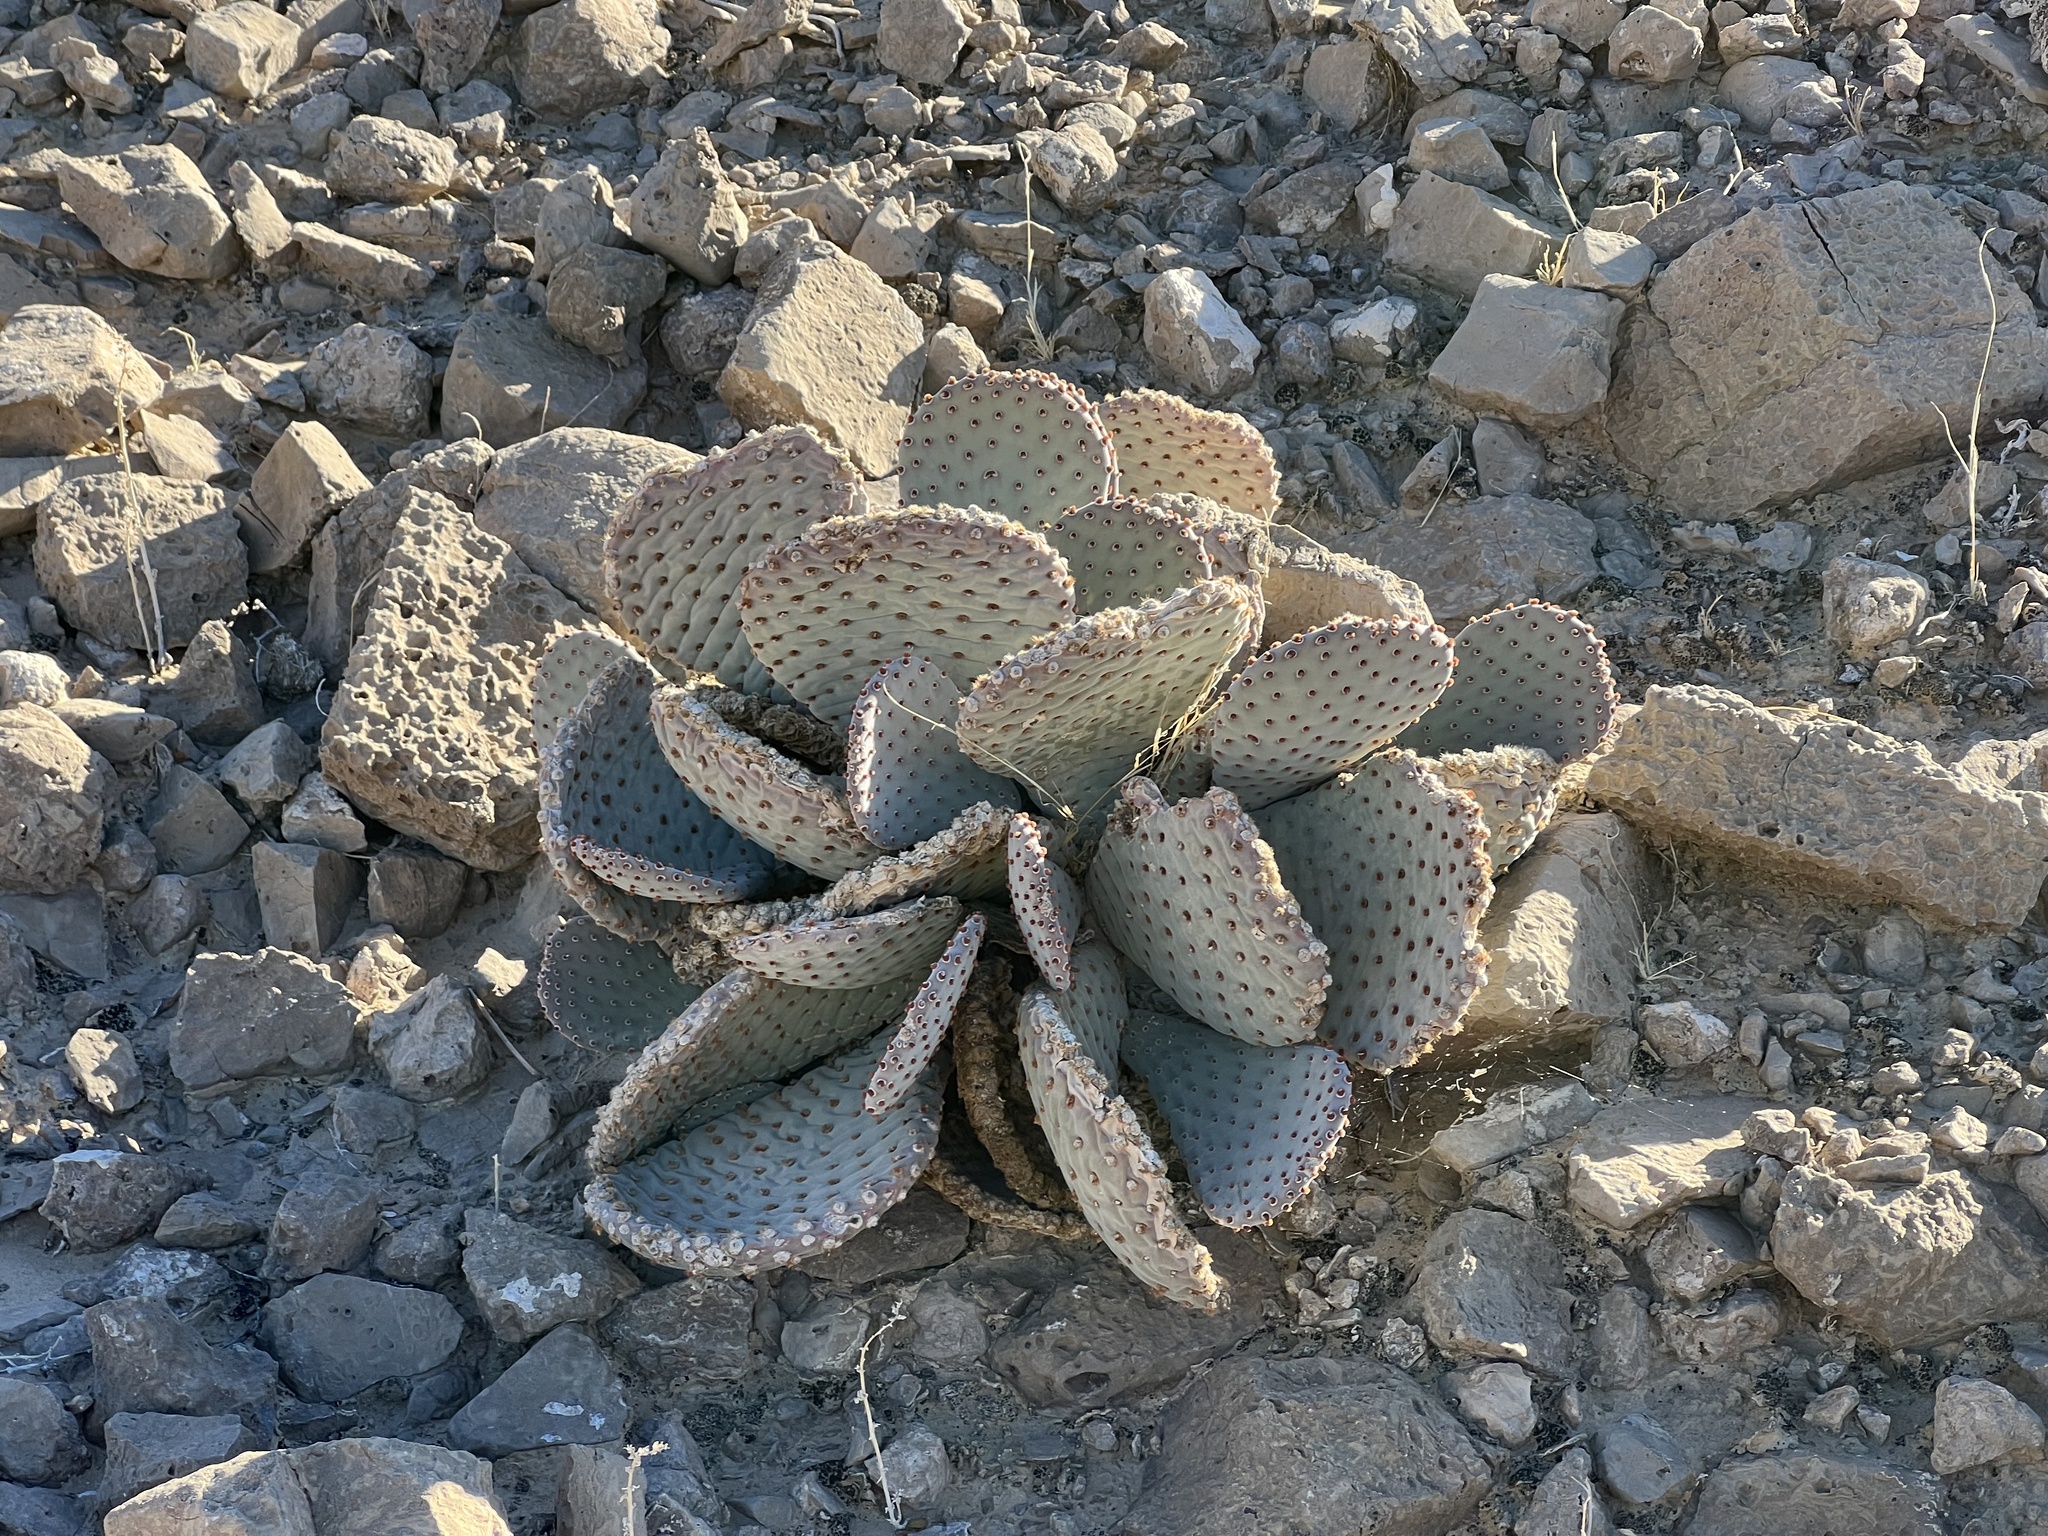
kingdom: Plantae
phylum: Tracheophyta
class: Magnoliopsida
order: Caryophyllales
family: Cactaceae
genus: Opuntia
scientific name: Opuntia basilaris
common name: Beavertail prickly-pear
